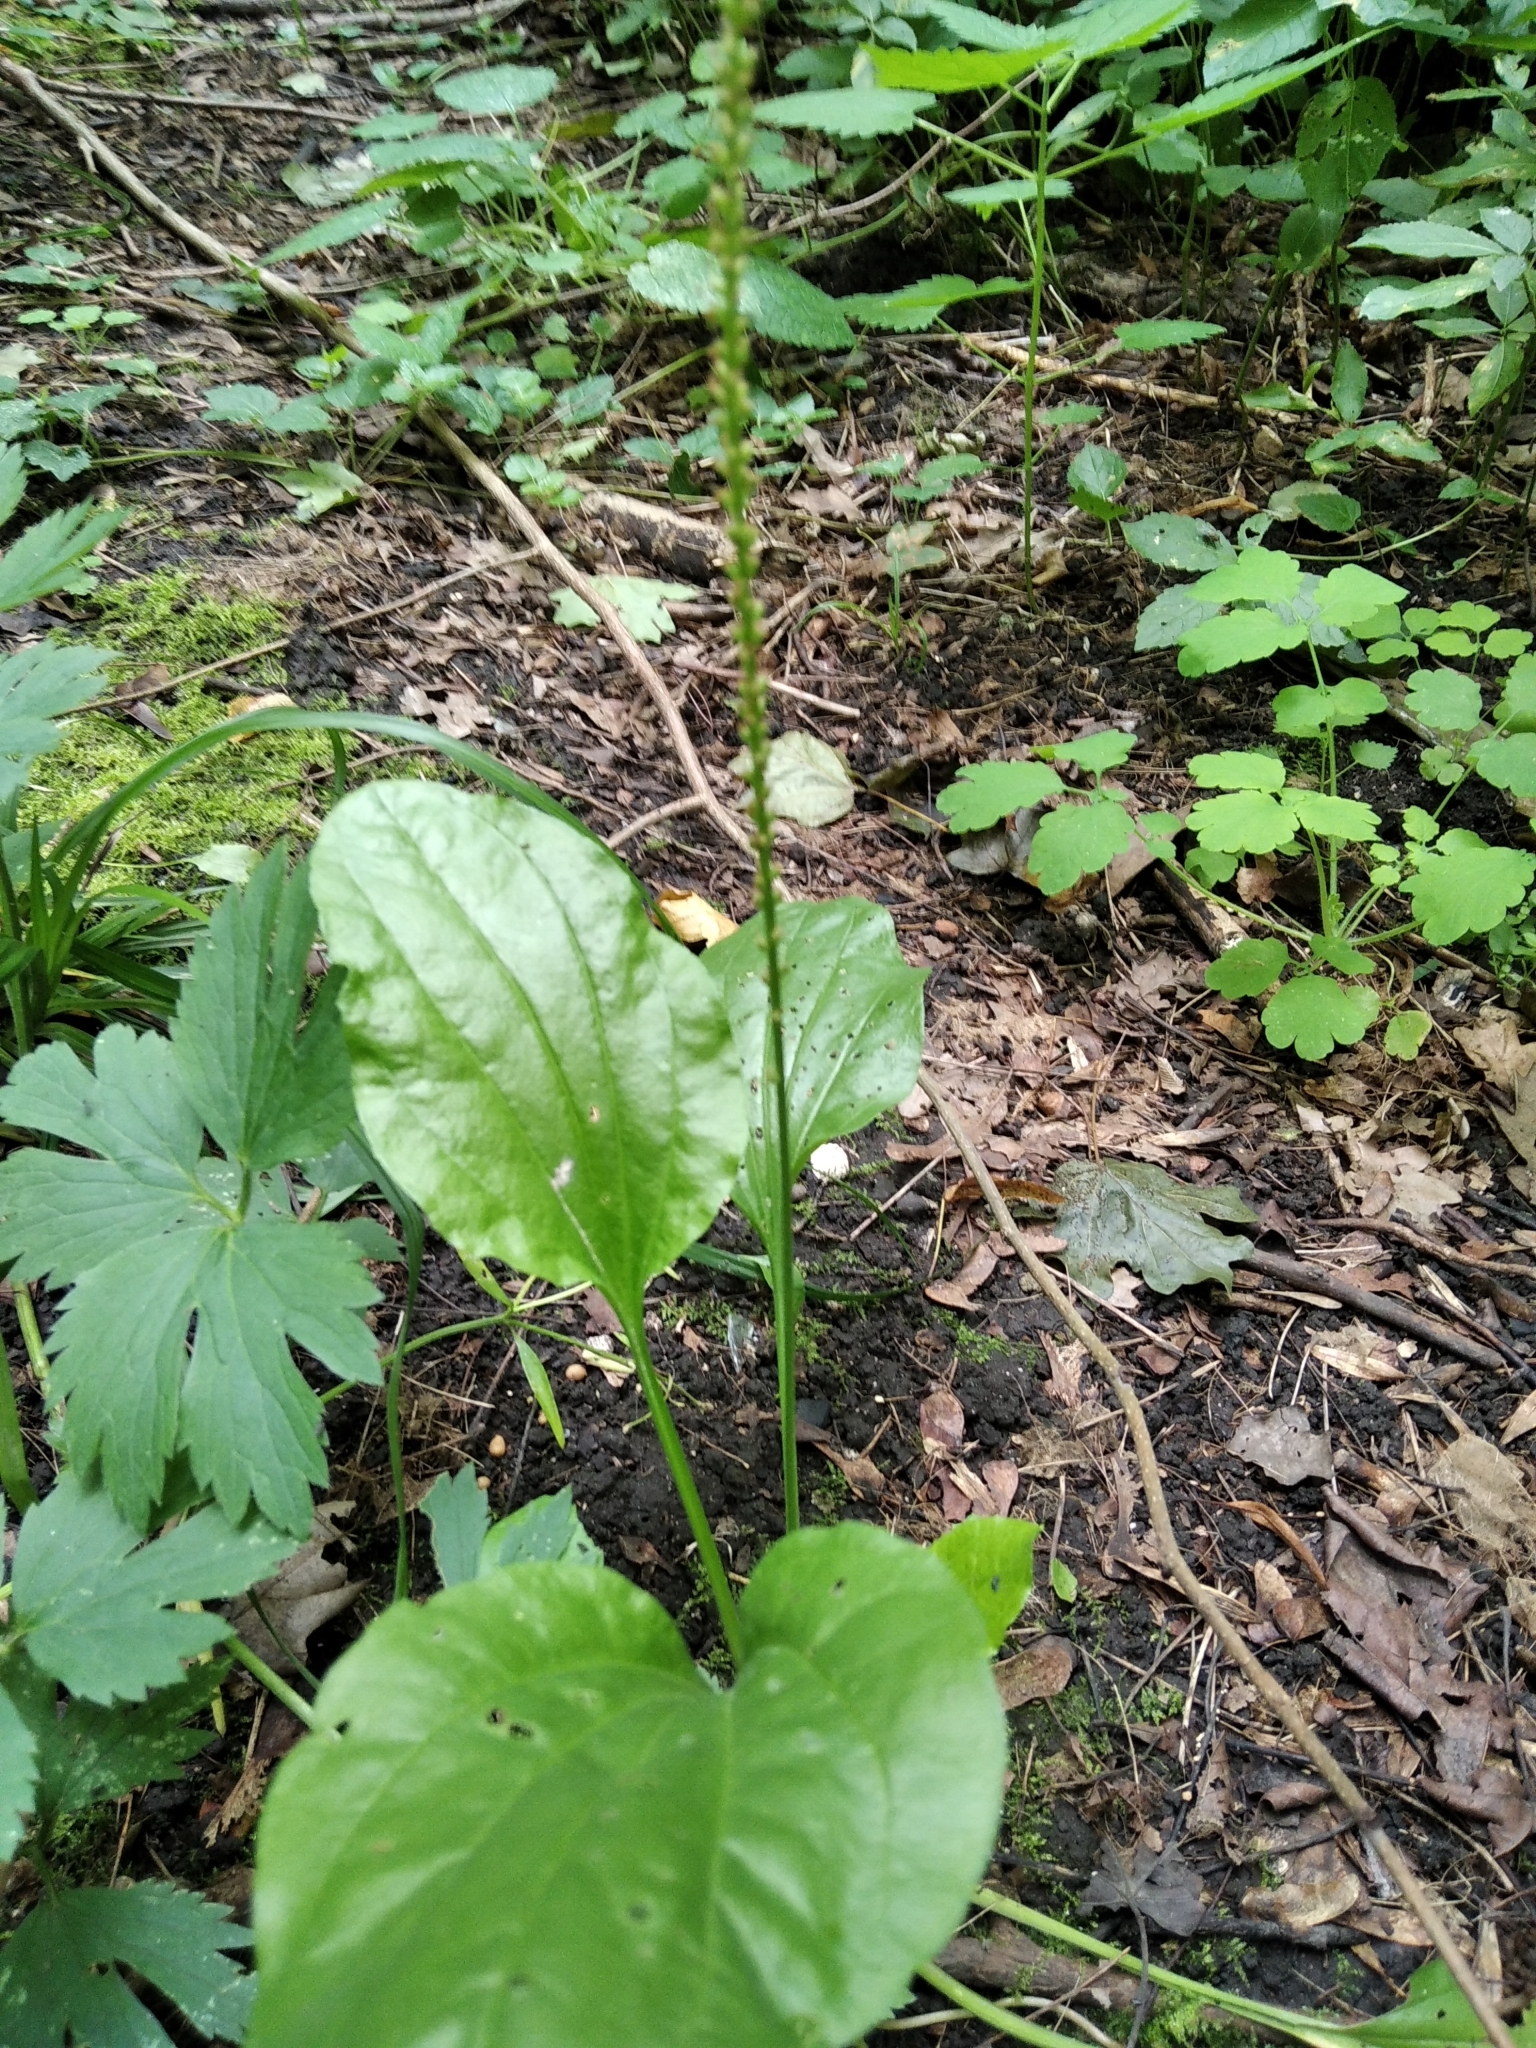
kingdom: Plantae
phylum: Tracheophyta
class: Magnoliopsida
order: Lamiales
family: Plantaginaceae
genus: Plantago
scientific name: Plantago major
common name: Common plantain
